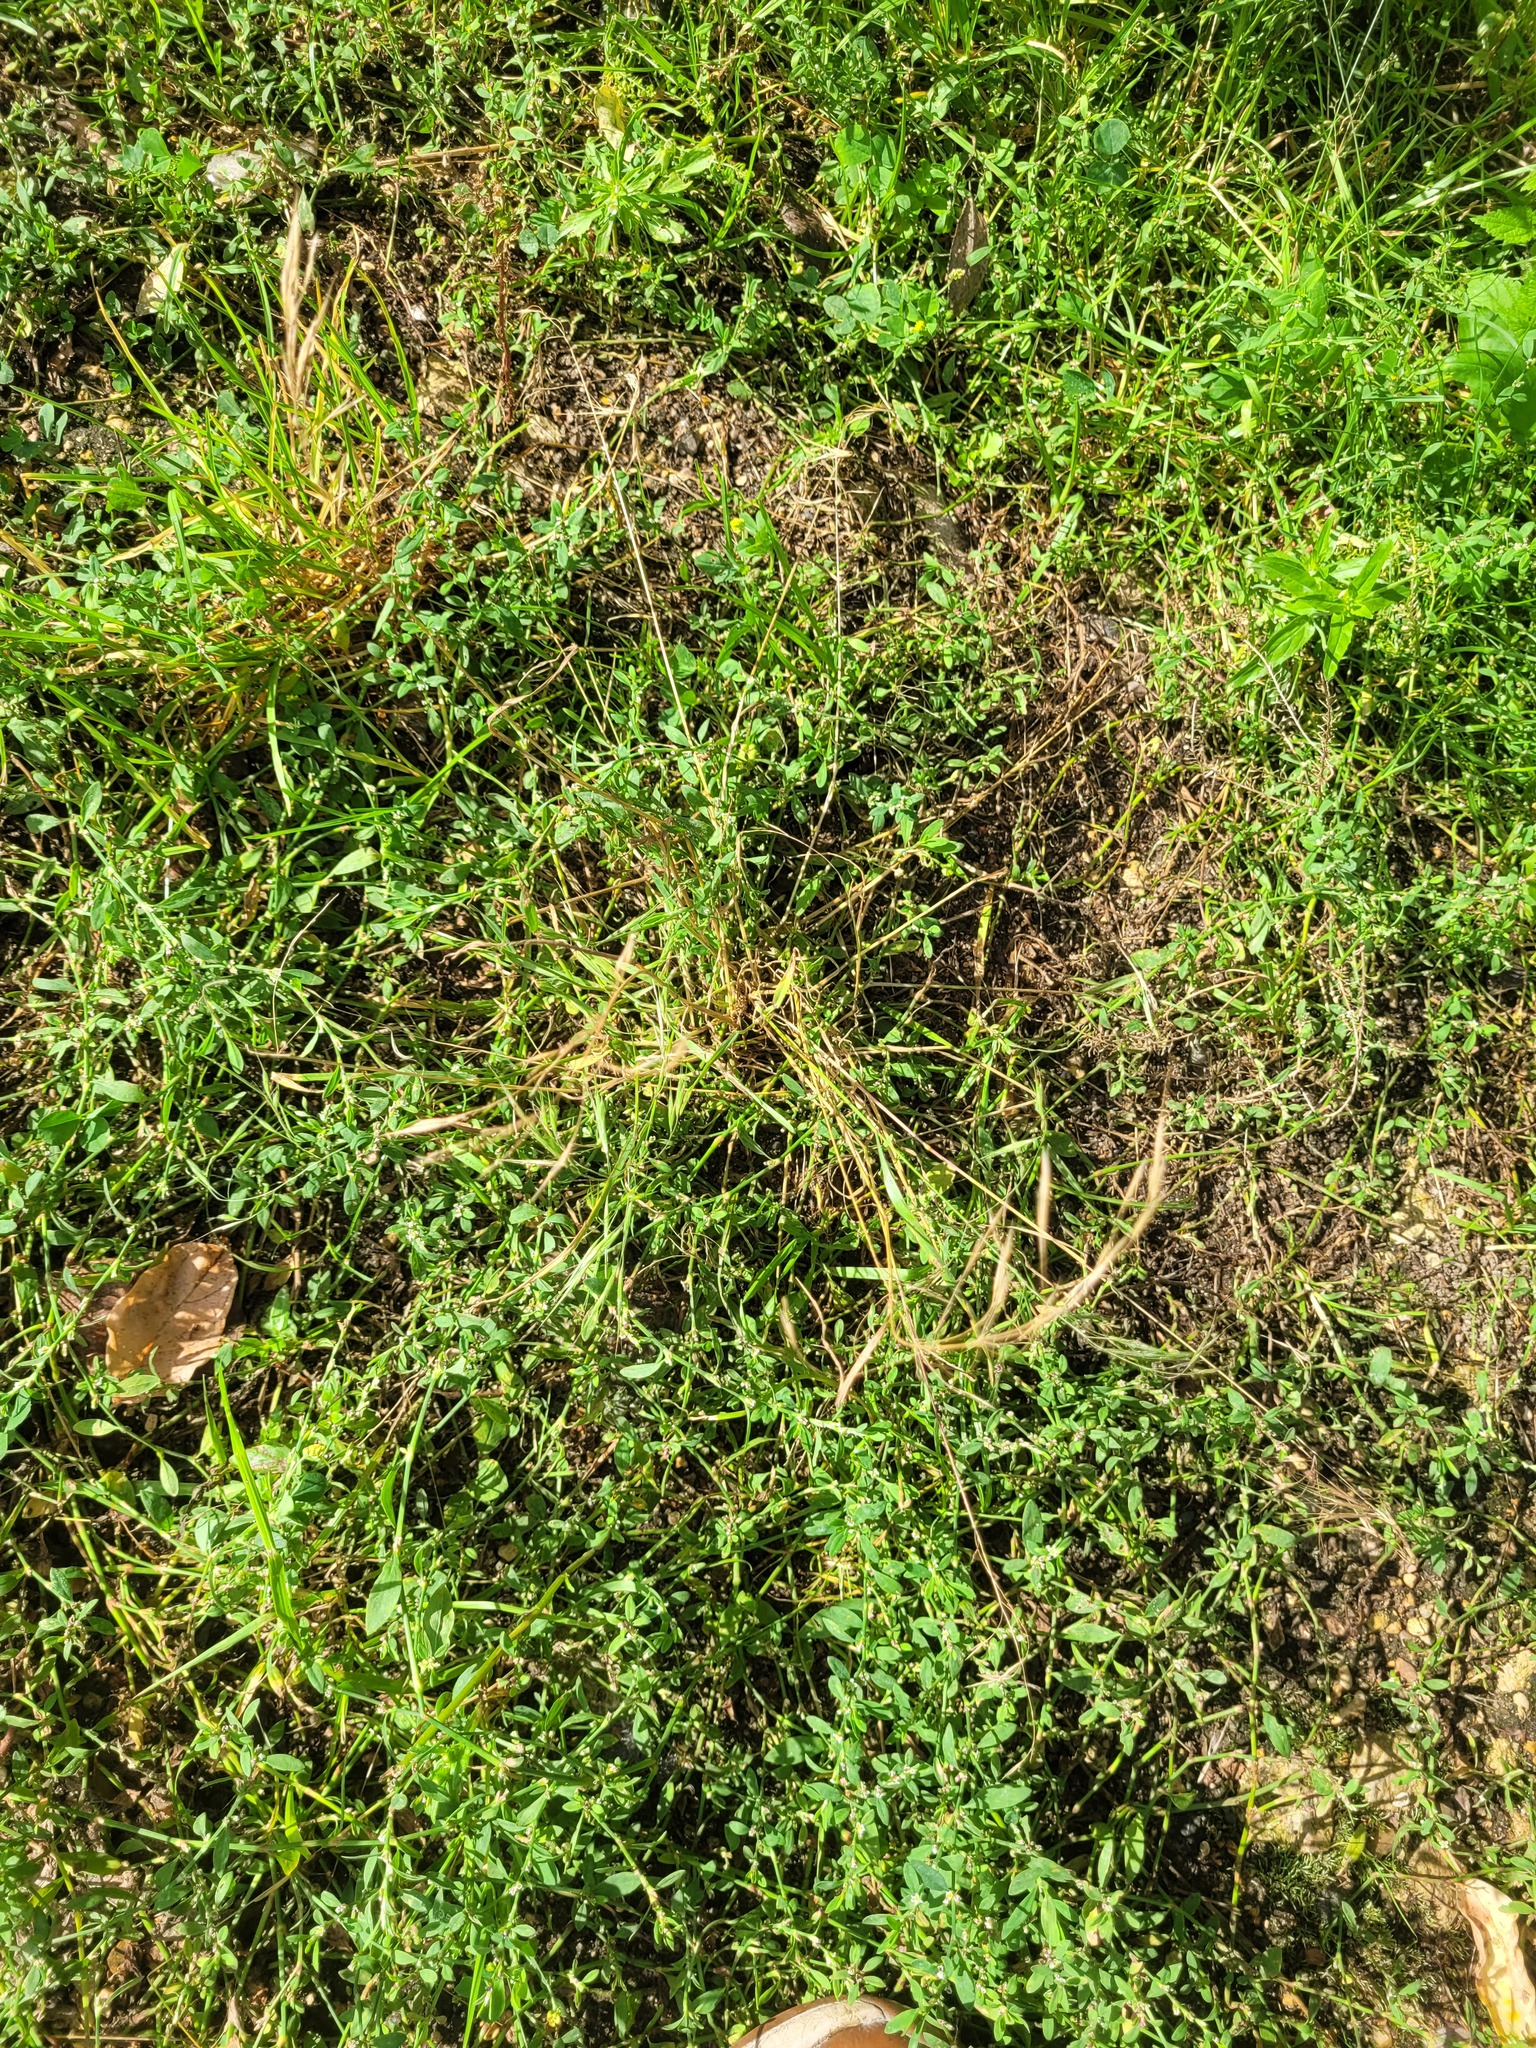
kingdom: Plantae
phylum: Tracheophyta
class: Liliopsida
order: Poales
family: Poaceae
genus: Bromus
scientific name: Bromus tectorum
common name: Cheatgrass
